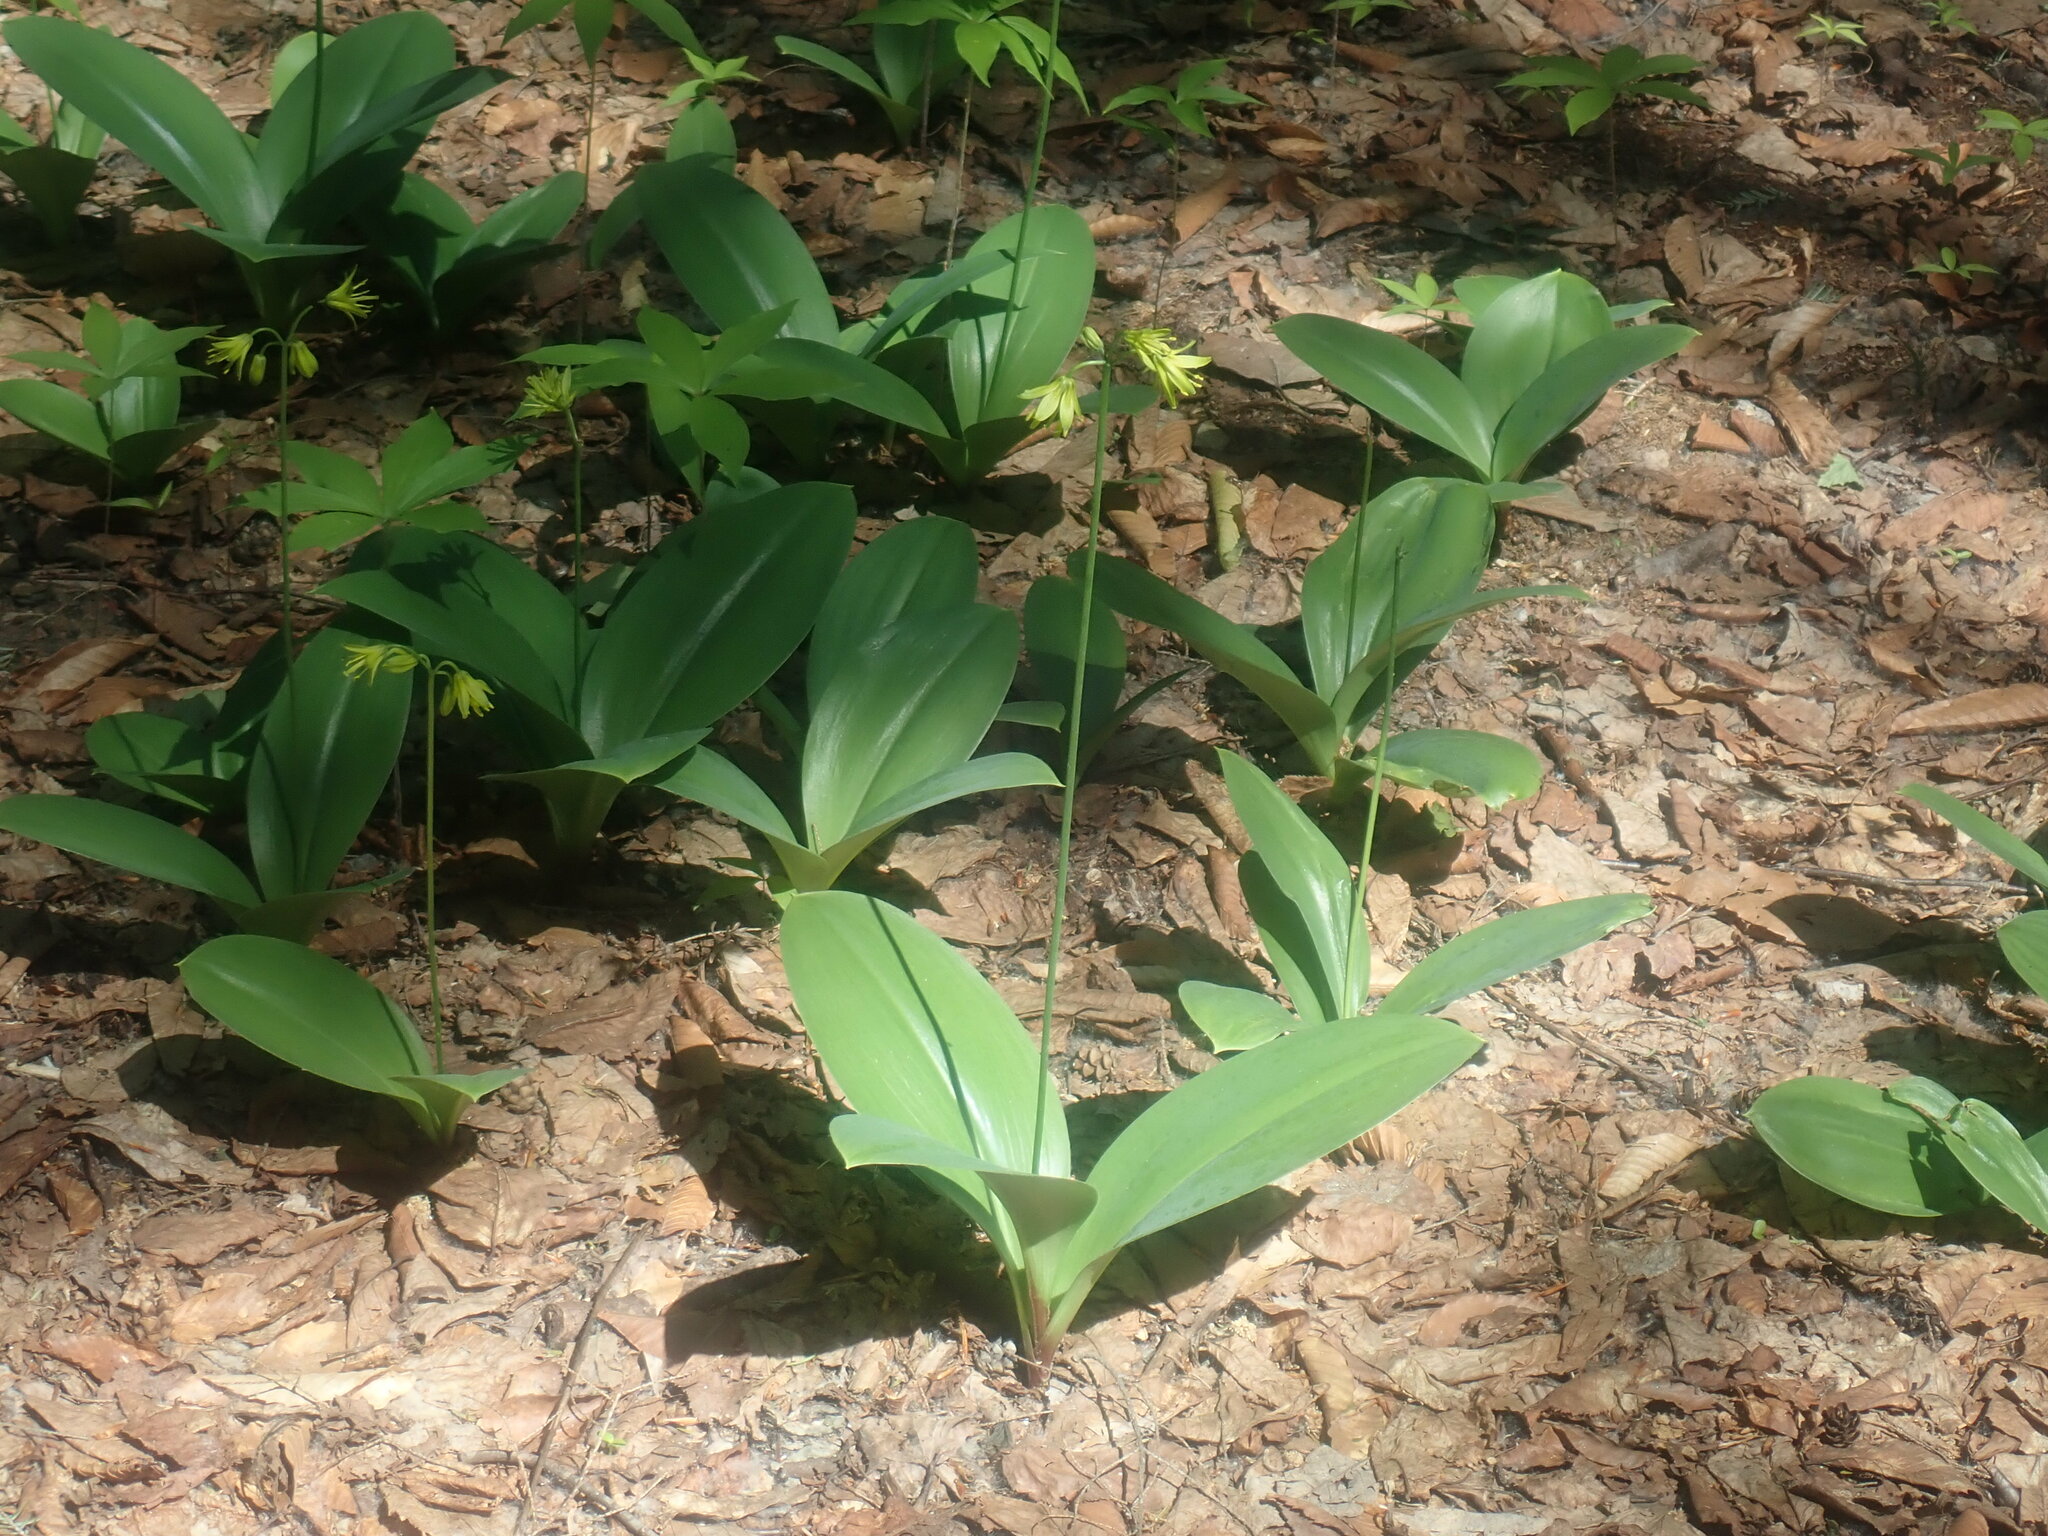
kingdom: Plantae
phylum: Tracheophyta
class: Liliopsida
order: Liliales
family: Liliaceae
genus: Clintonia
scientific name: Clintonia borealis
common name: Yellow clintonia
